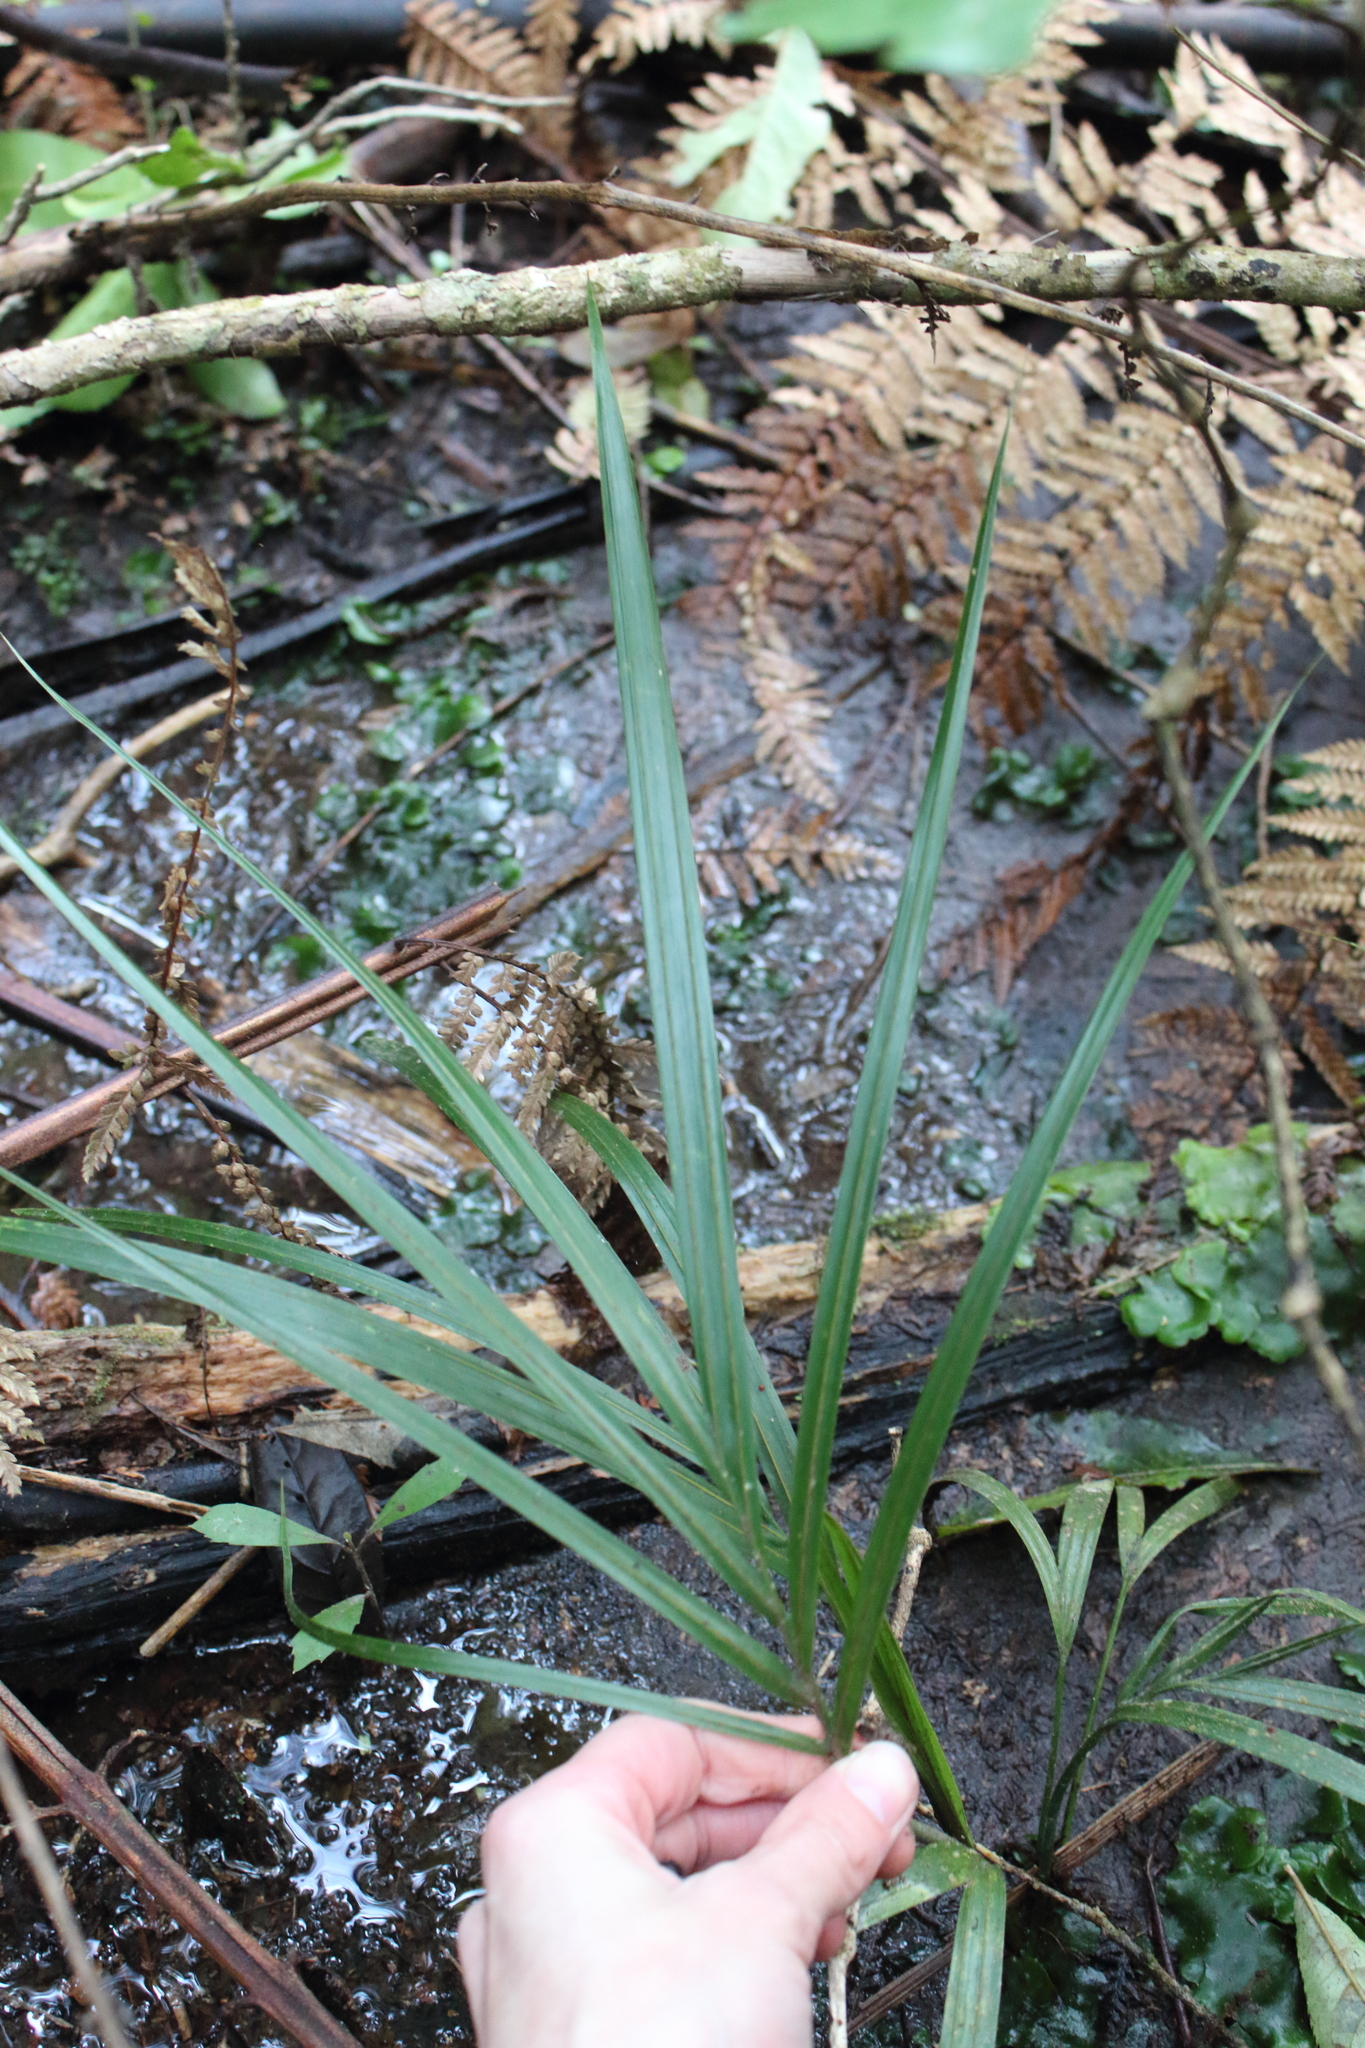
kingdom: Plantae
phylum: Tracheophyta
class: Liliopsida
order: Arecales
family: Arecaceae
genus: Rhopalostylis
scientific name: Rhopalostylis sapida
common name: Feather-duster palm
